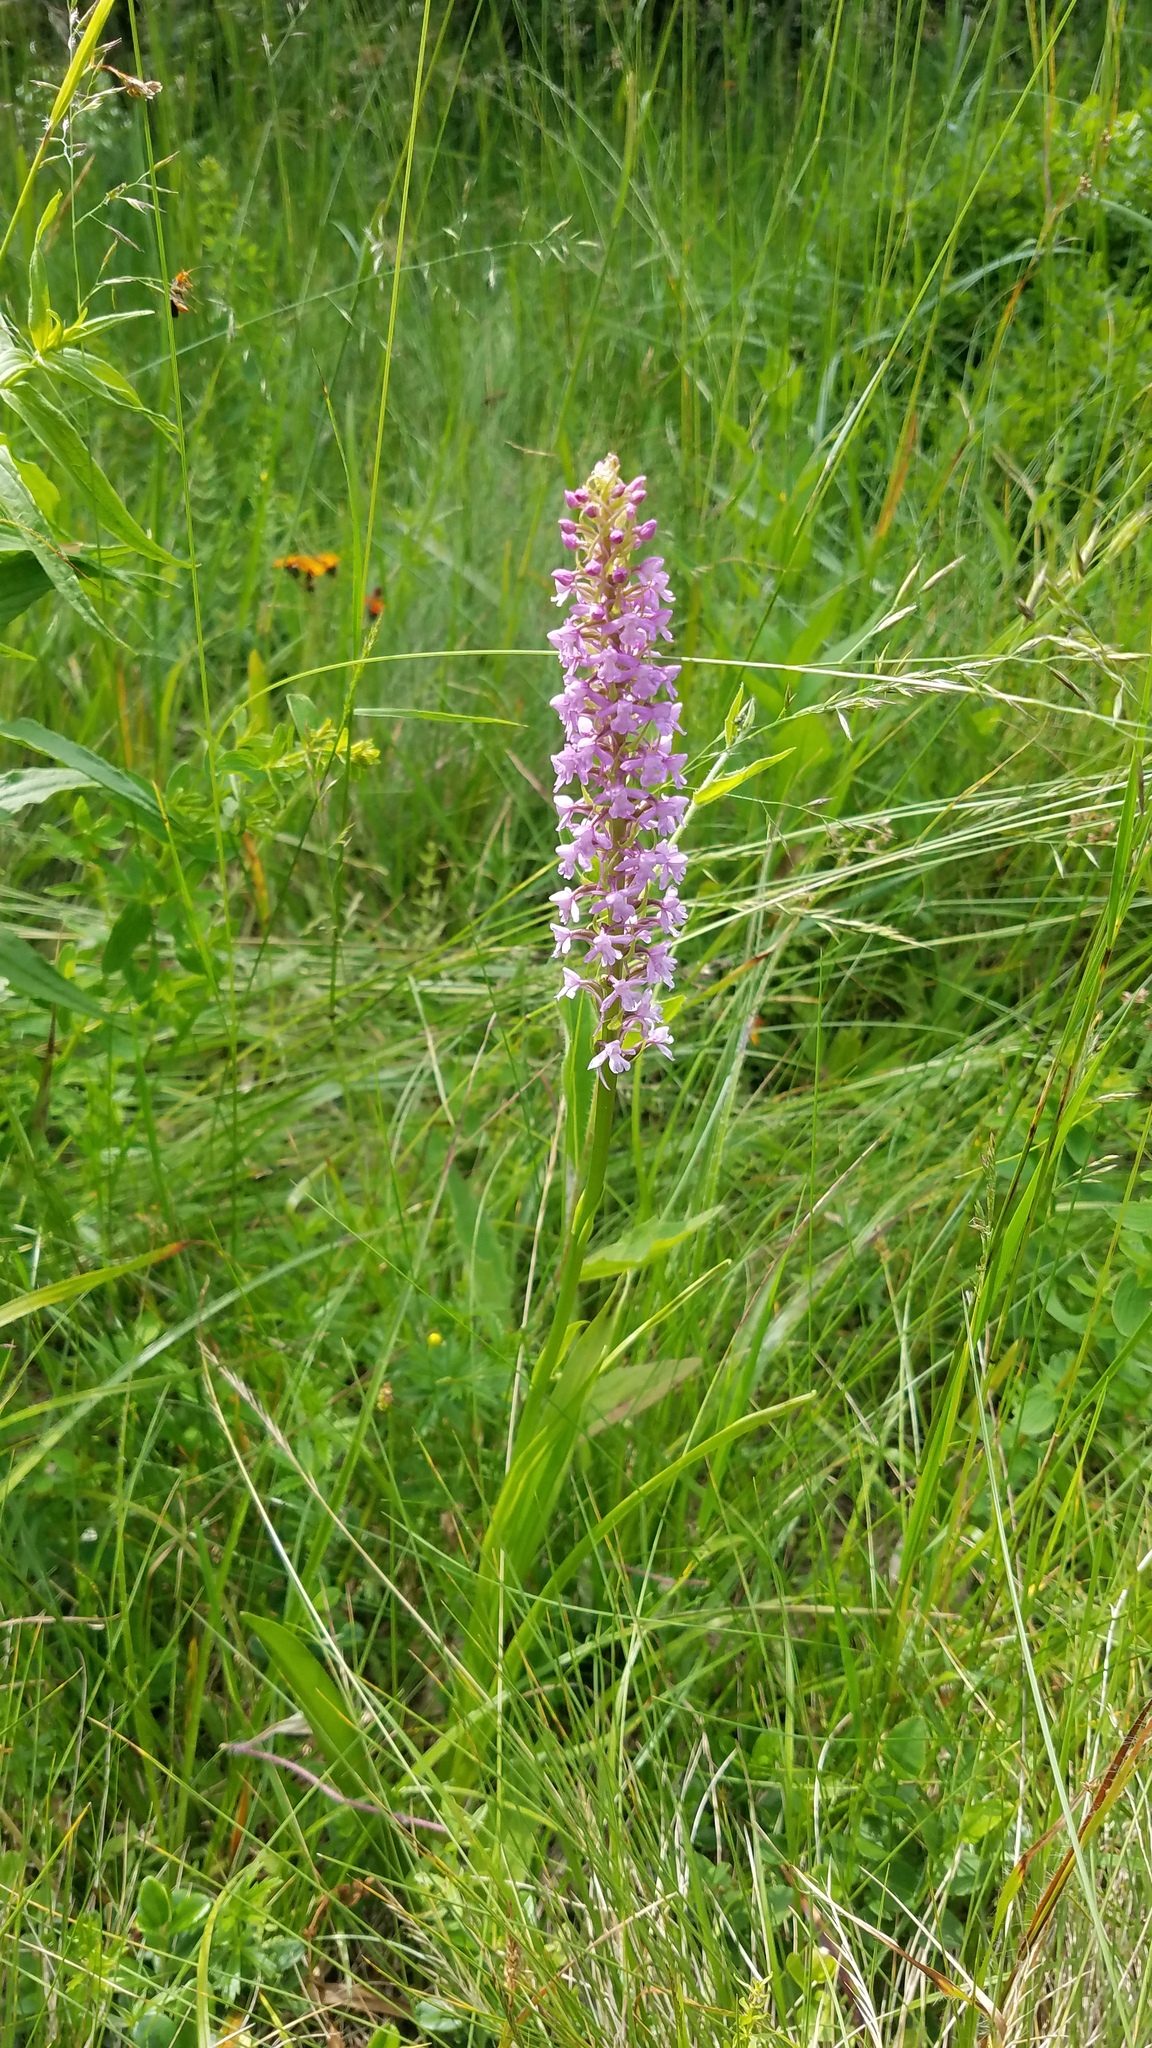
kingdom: Plantae
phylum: Tracheophyta
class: Liliopsida
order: Asparagales
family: Orchidaceae
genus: Gymnadenia
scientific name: Gymnadenia conopsea
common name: Fragrant orchid
